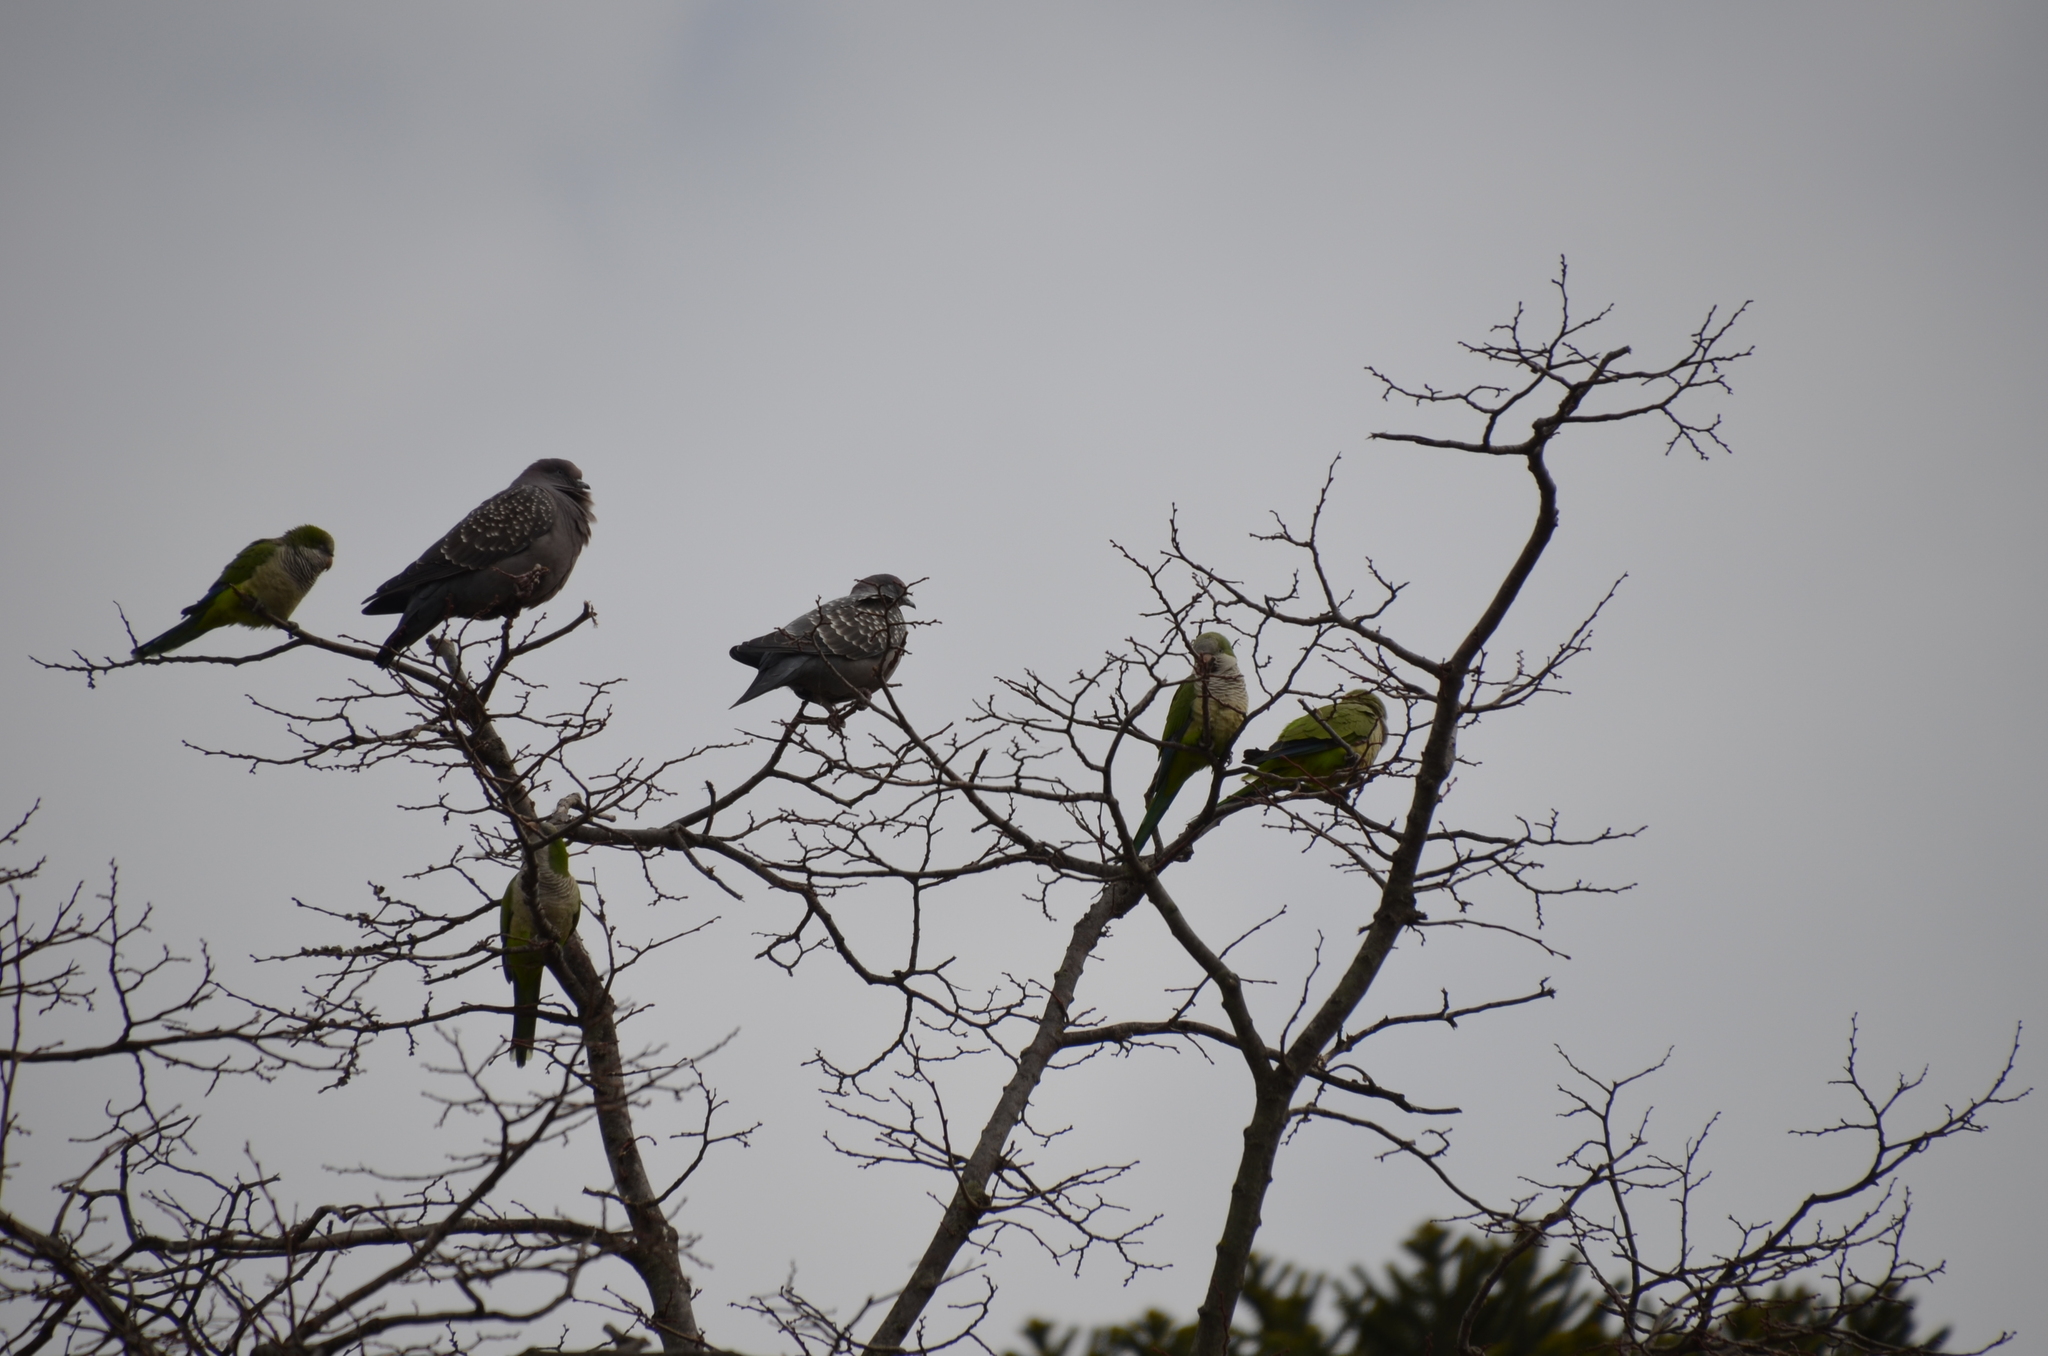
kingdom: Animalia
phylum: Chordata
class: Aves
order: Psittaciformes
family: Psittacidae
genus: Myiopsitta
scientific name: Myiopsitta monachus
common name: Monk parakeet
